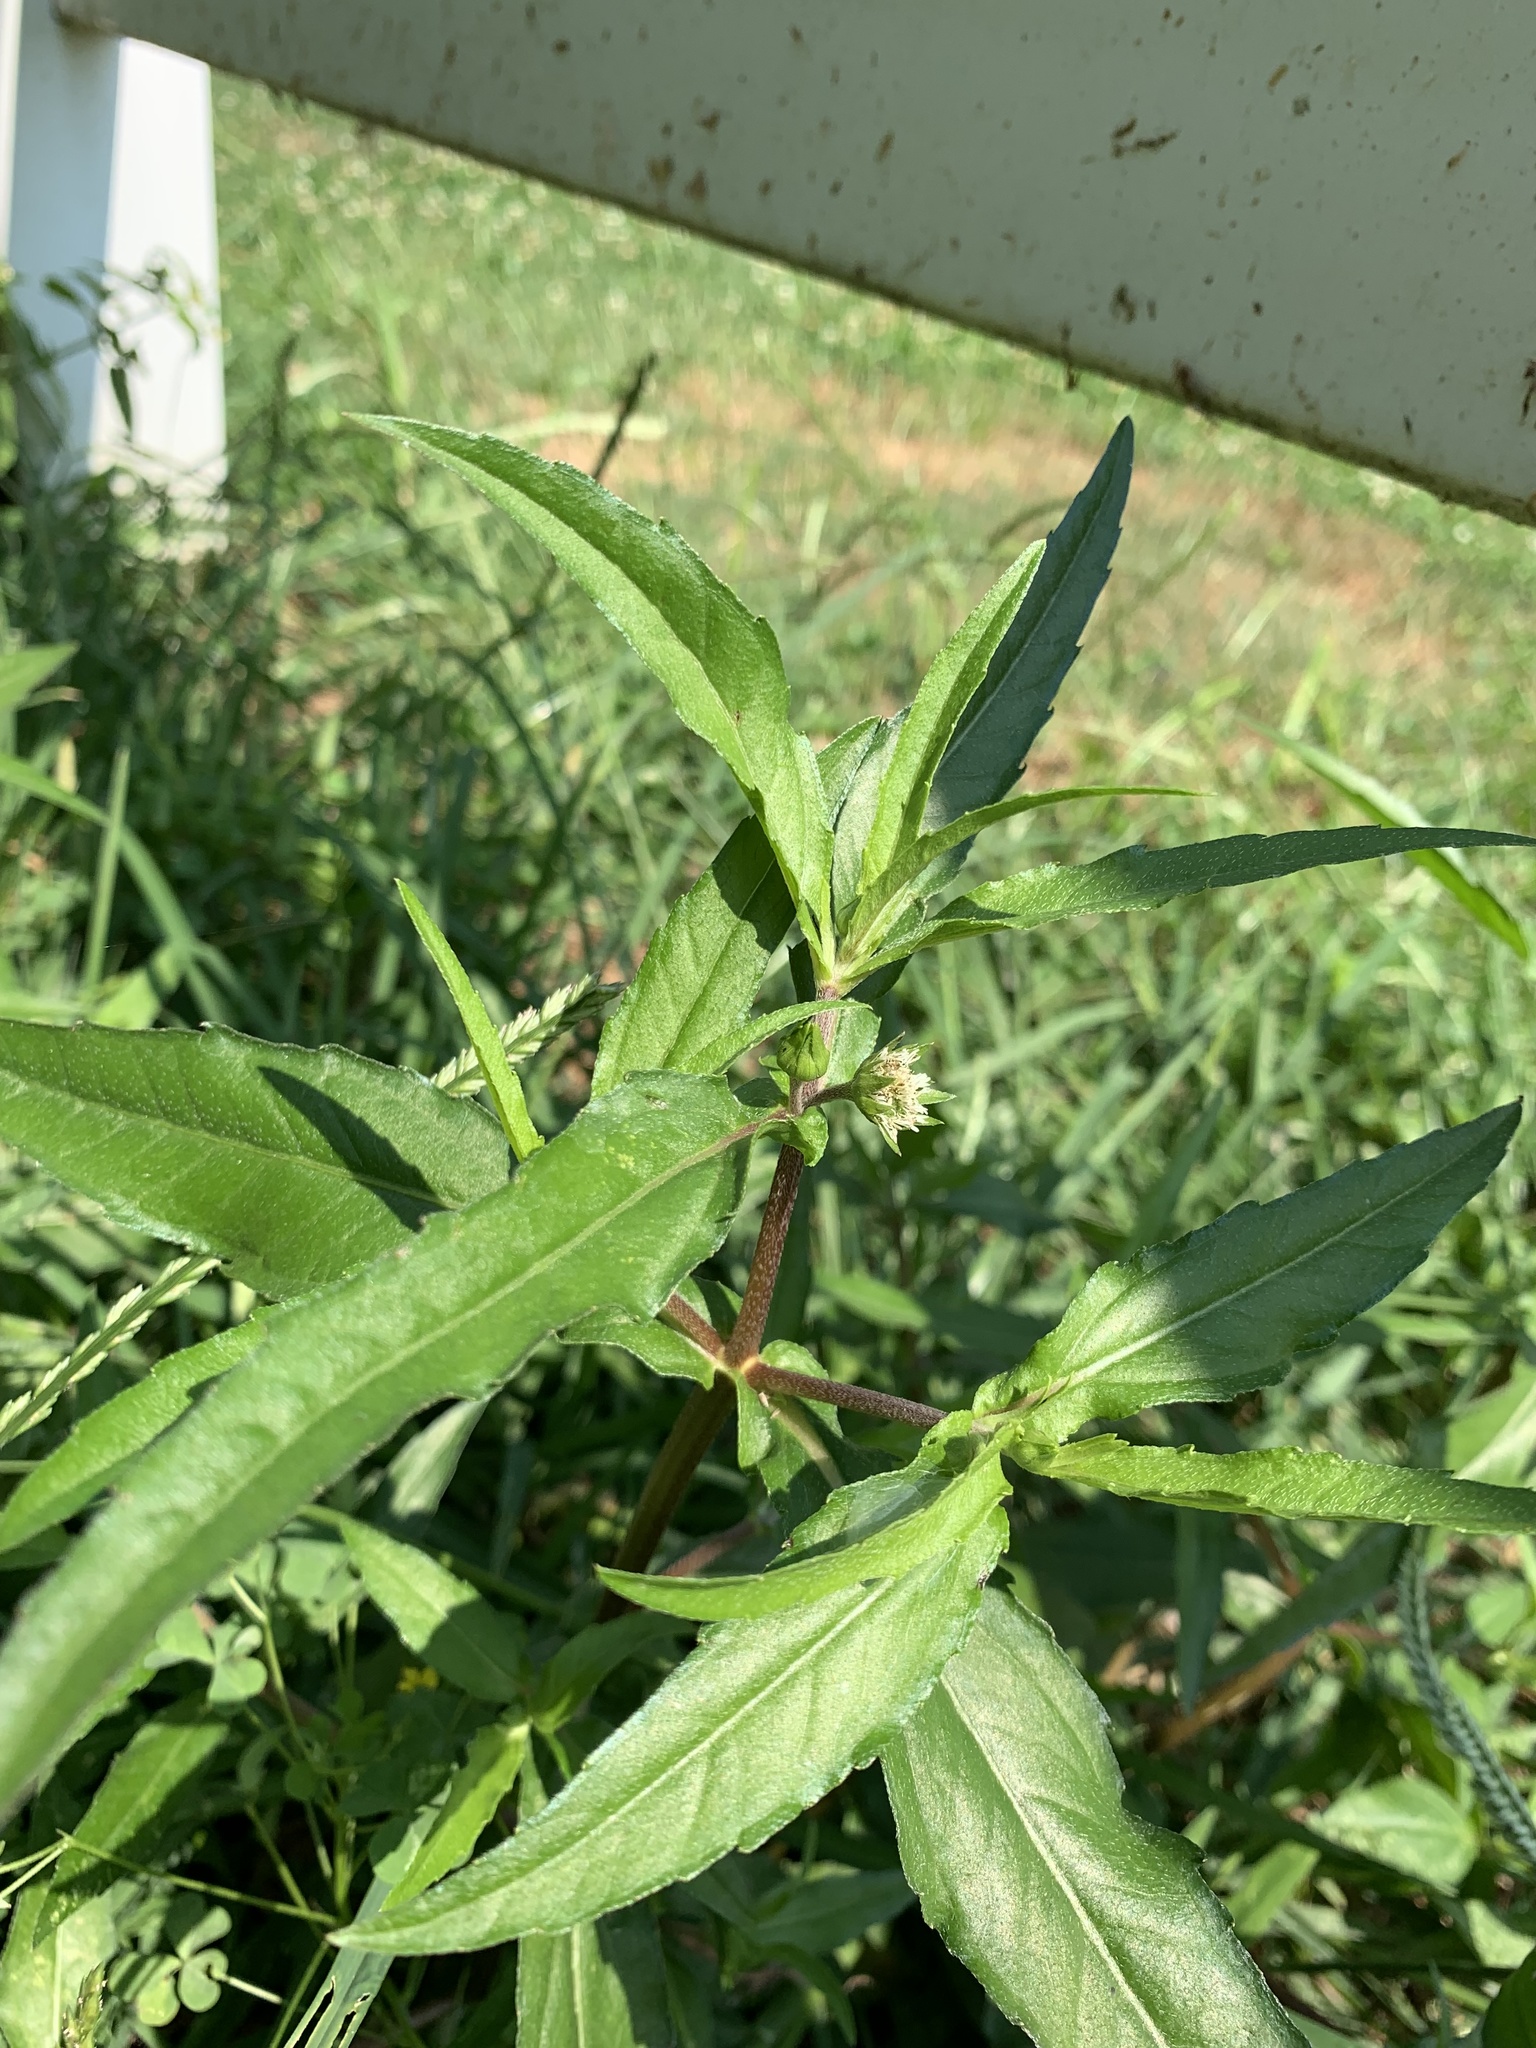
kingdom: Plantae
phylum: Tracheophyta
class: Magnoliopsida
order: Asterales
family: Asteraceae
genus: Eclipta
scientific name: Eclipta prostrata
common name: False daisy
